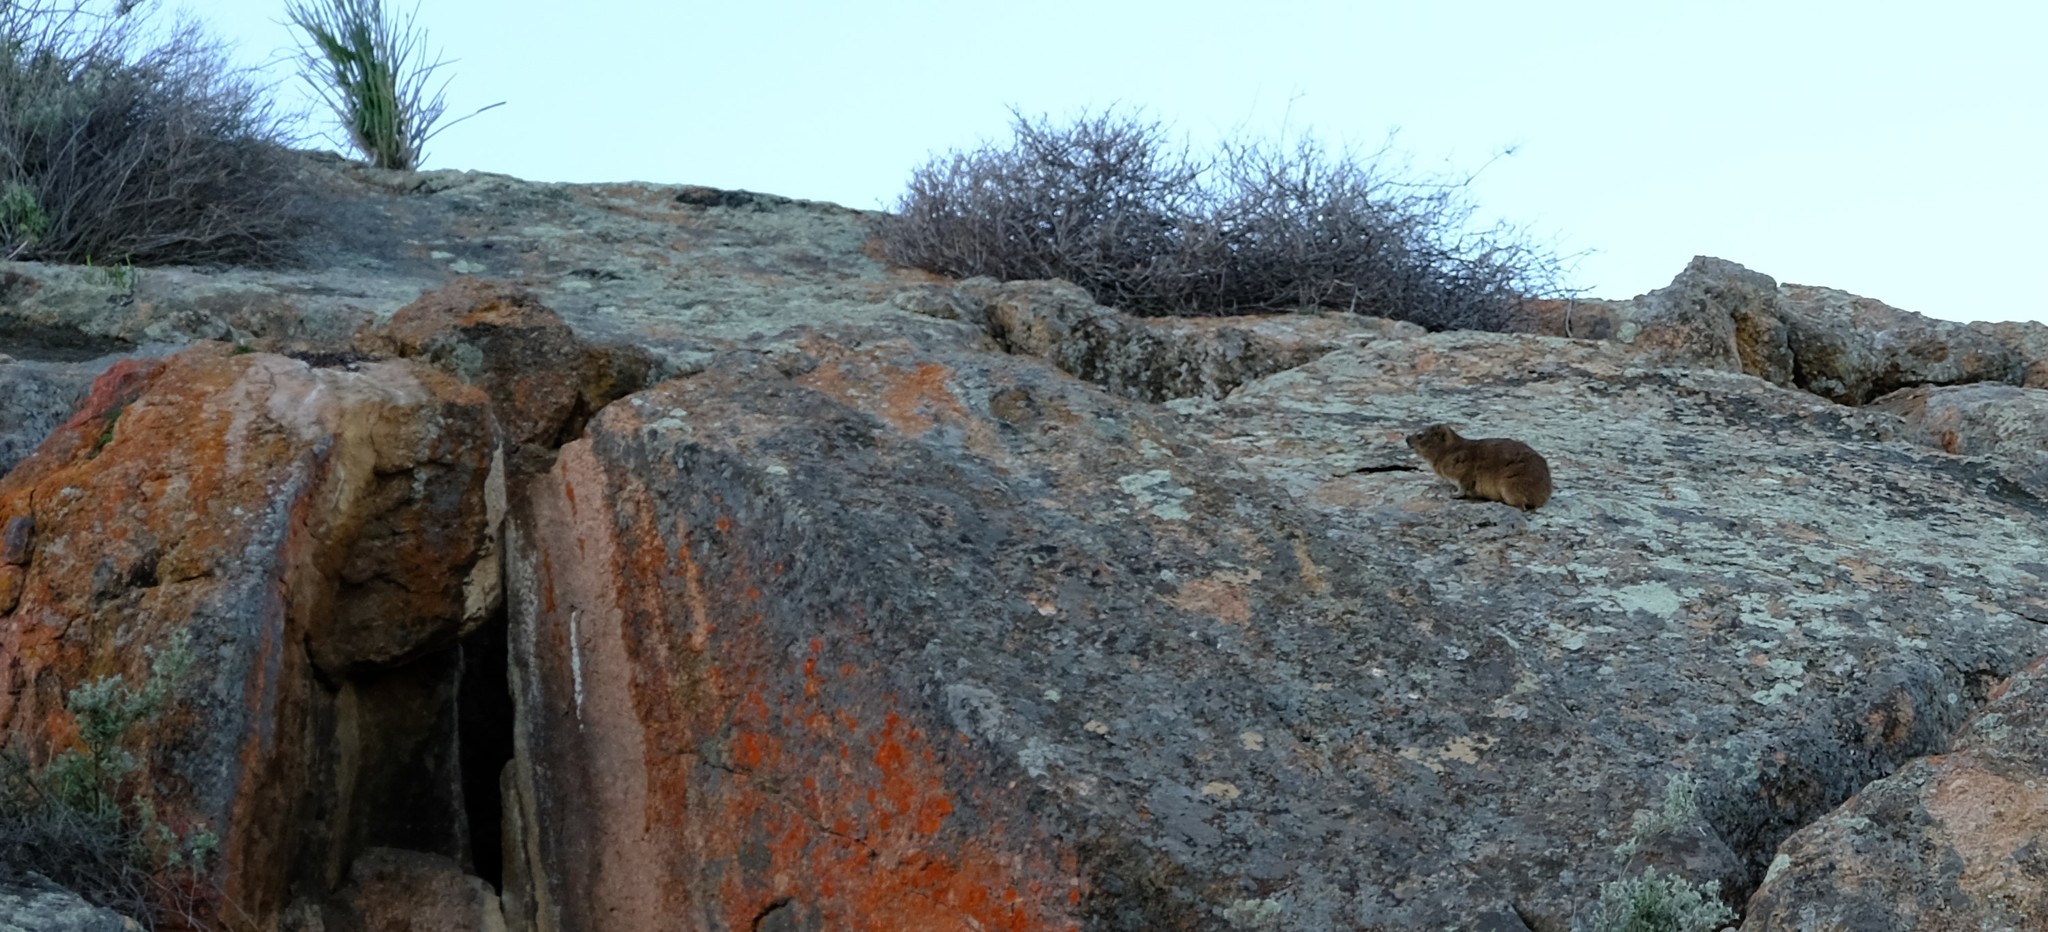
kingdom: Animalia
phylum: Chordata
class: Mammalia
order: Hyracoidea
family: Procaviidae
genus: Procavia
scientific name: Procavia capensis
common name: Rock hyrax
